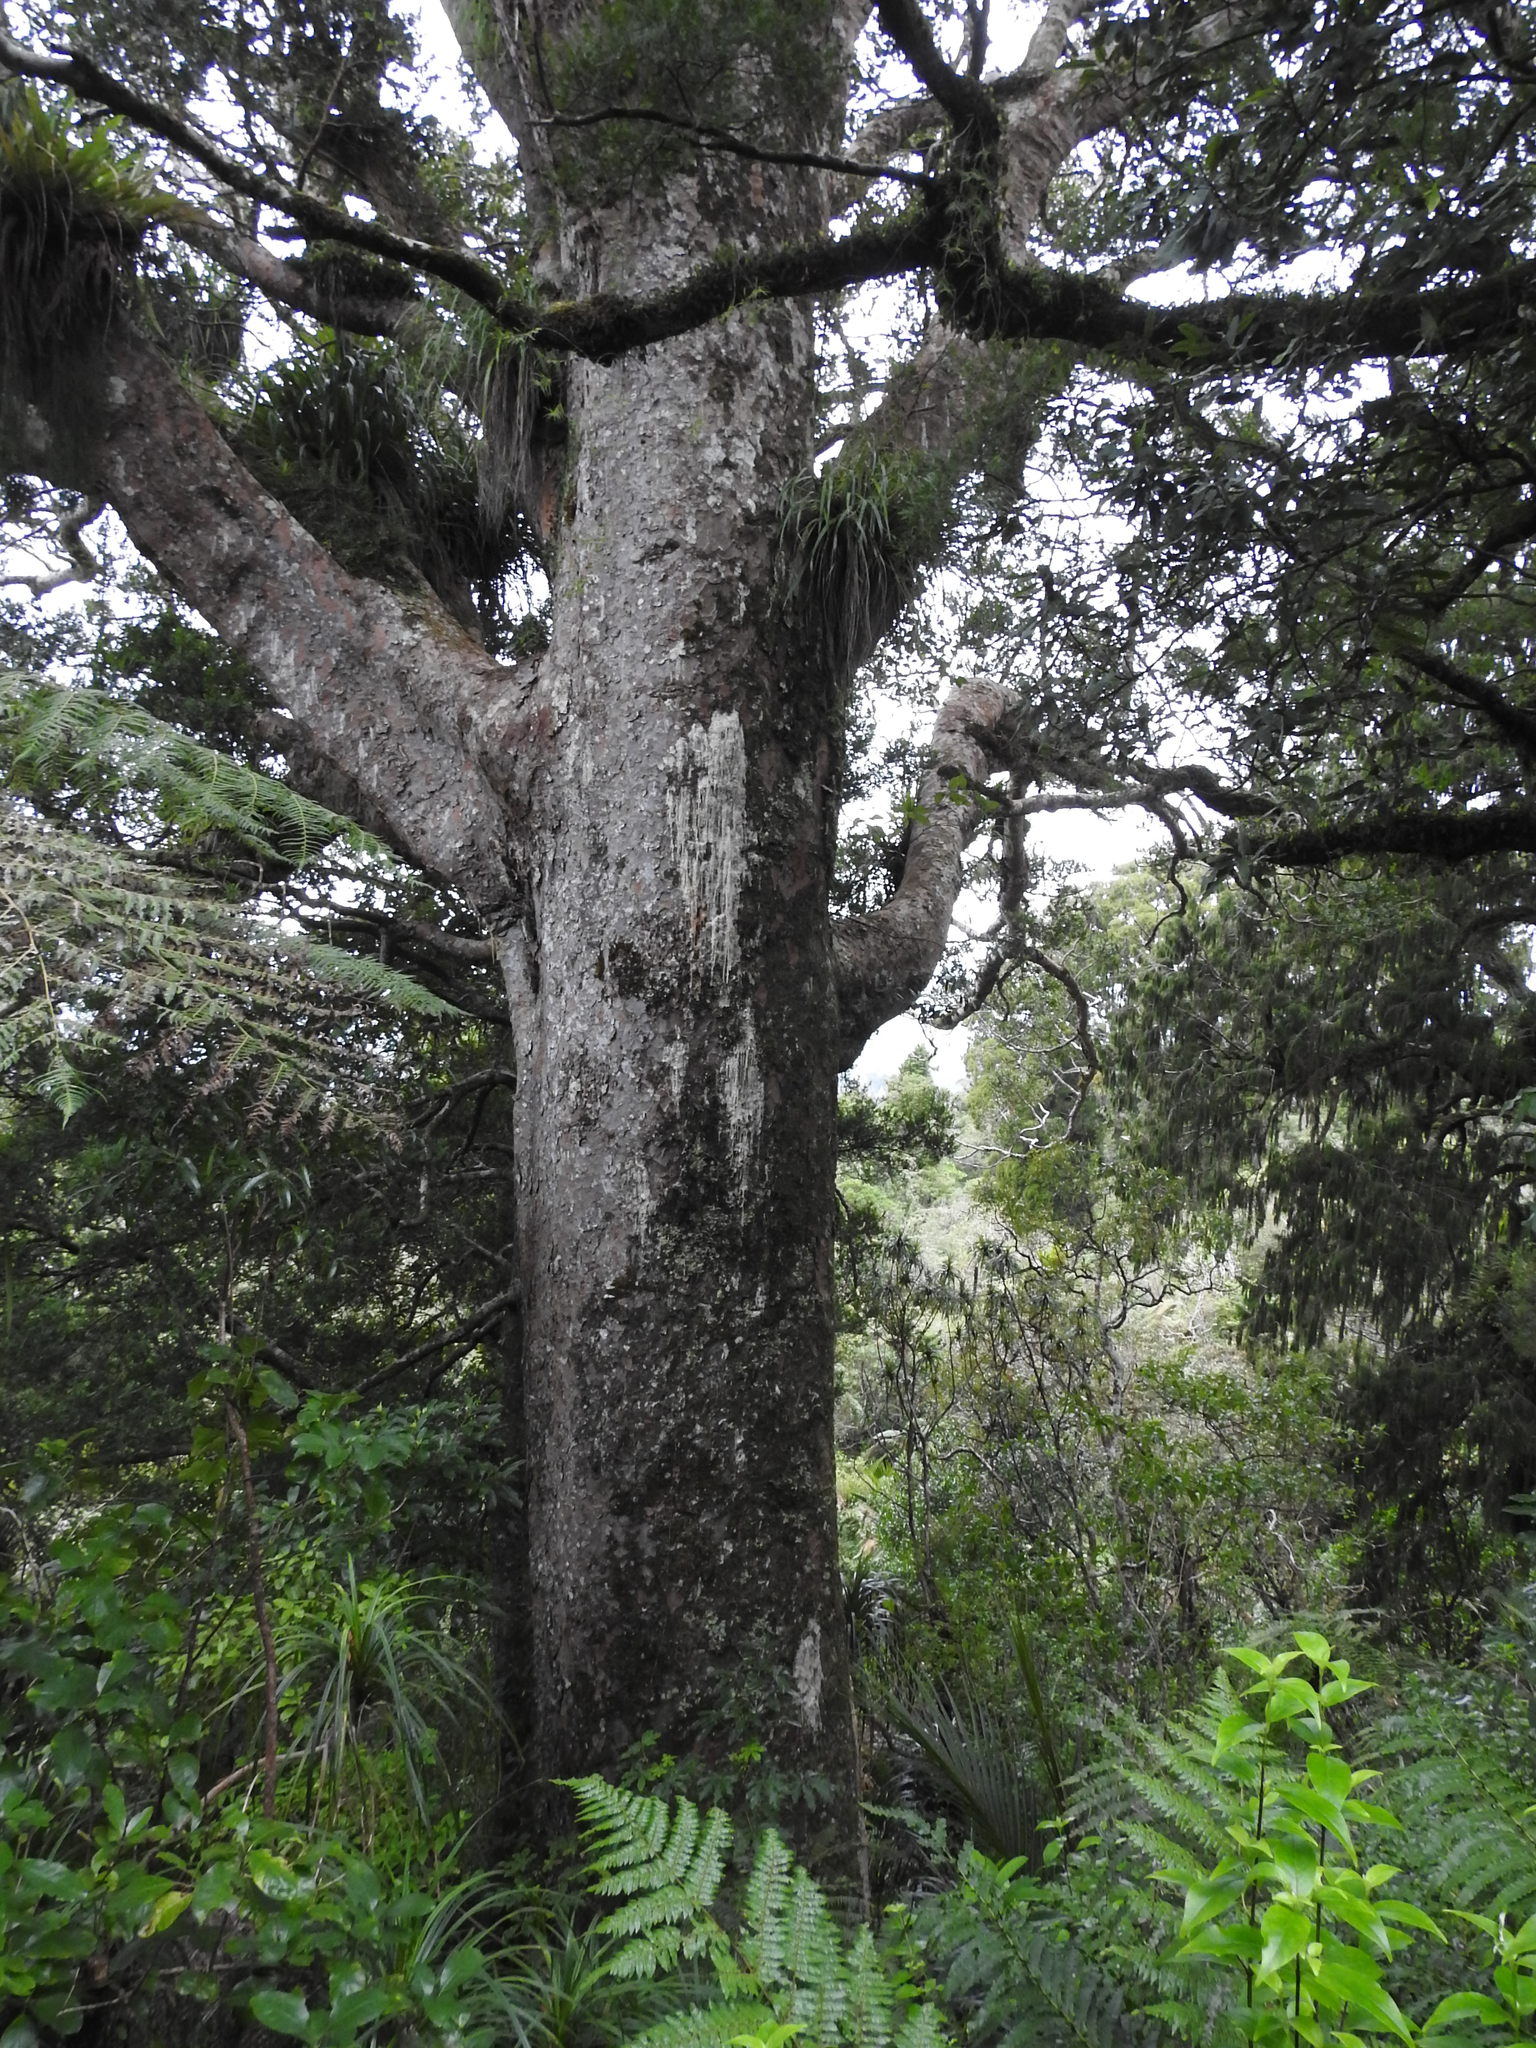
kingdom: Plantae
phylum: Tracheophyta
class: Pinopsida
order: Pinales
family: Araucariaceae
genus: Agathis
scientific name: Agathis australis
